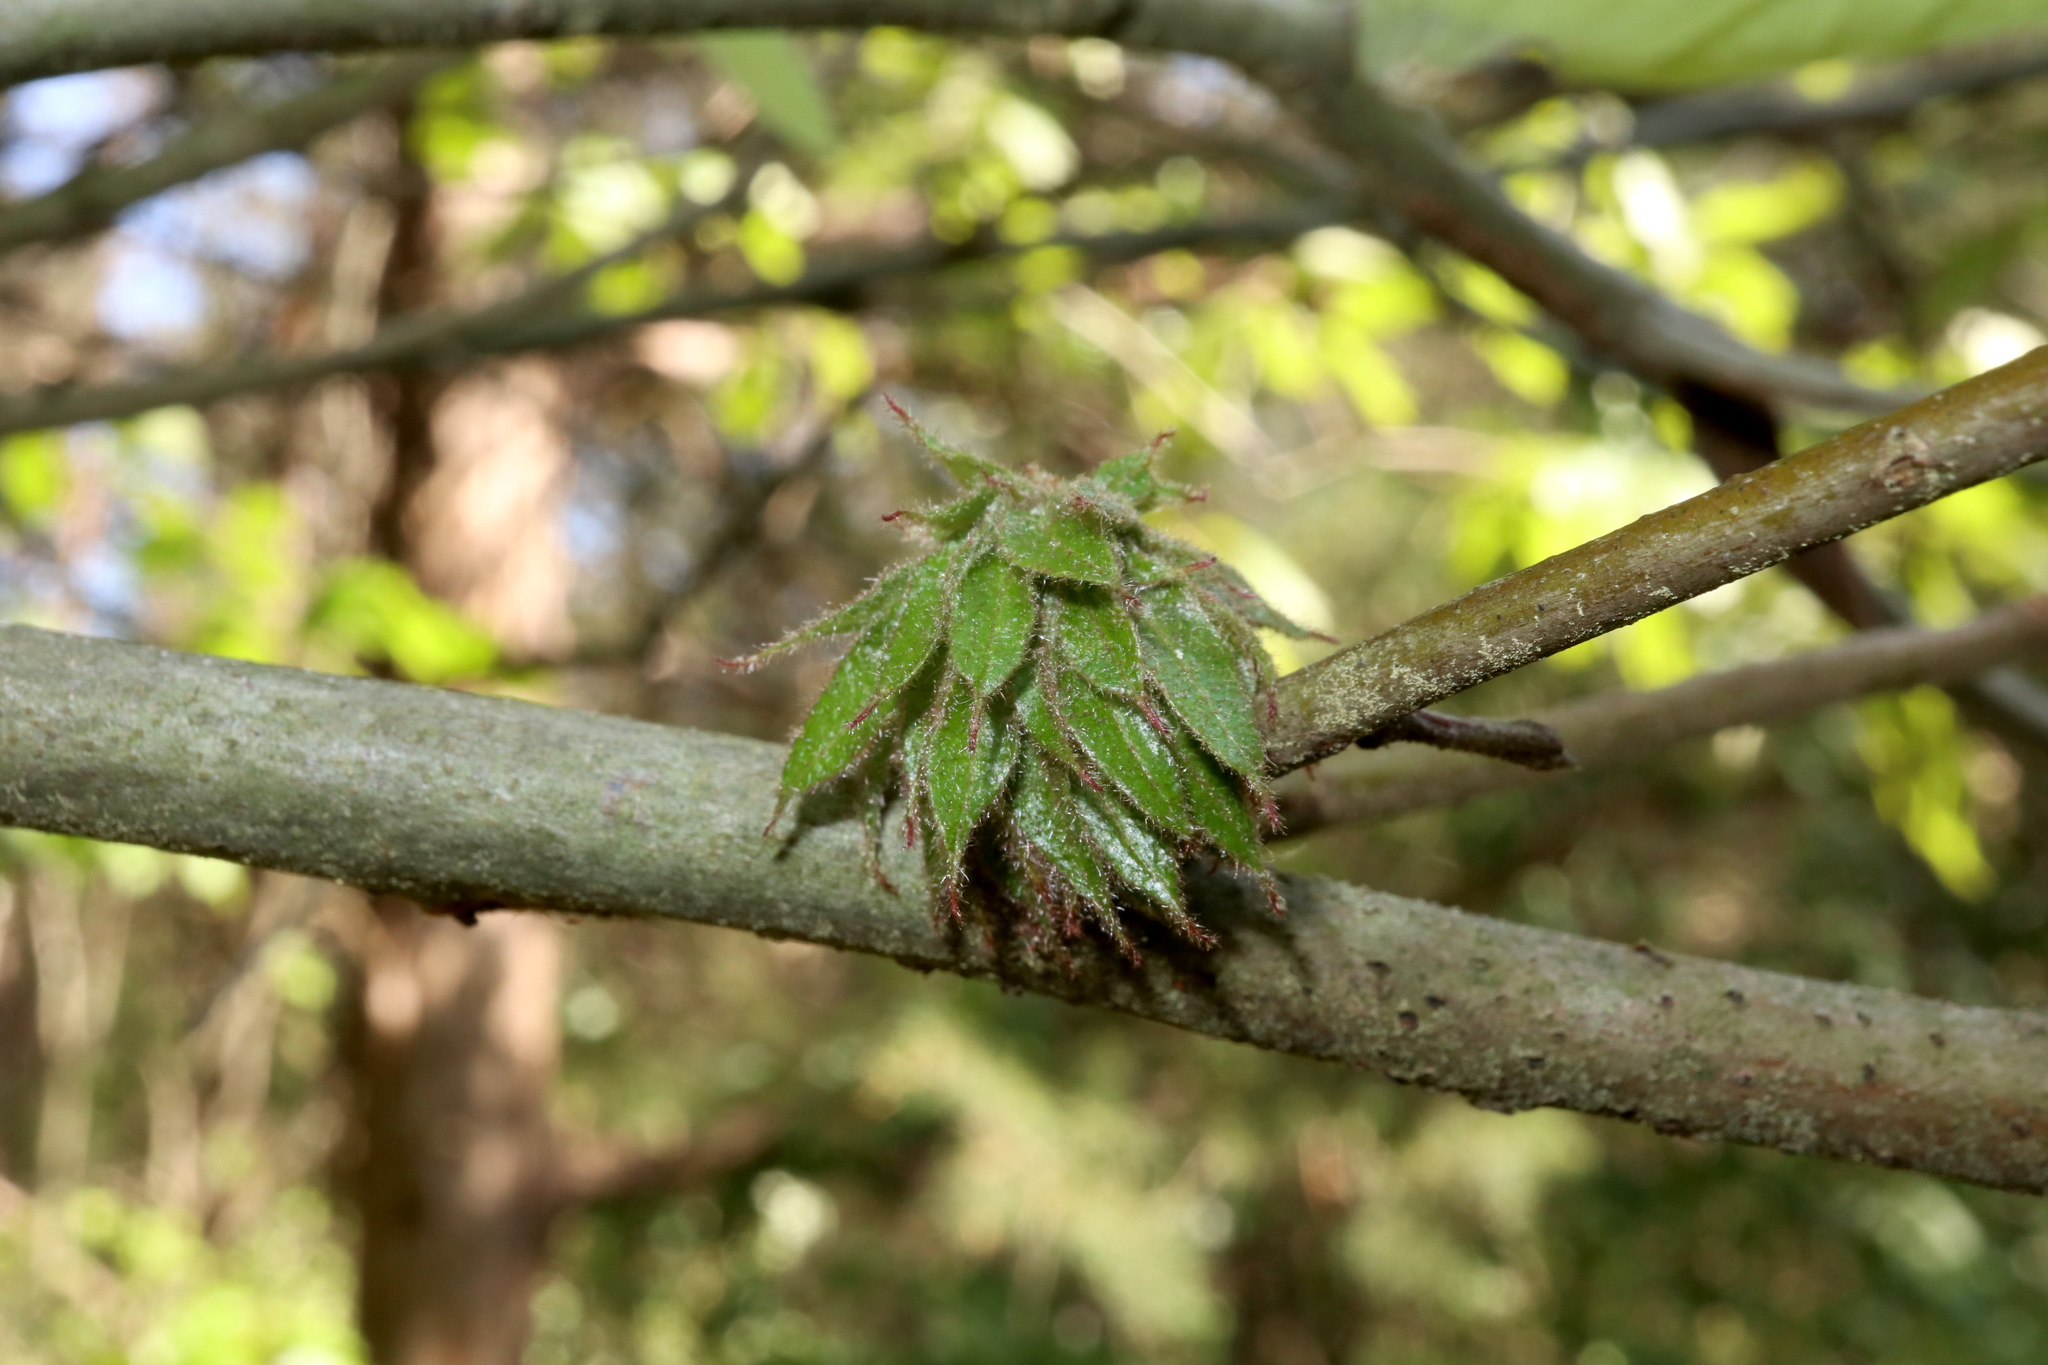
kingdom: Animalia
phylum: Arthropoda
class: Insecta
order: Hymenoptera
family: Cynipidae
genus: Dryocosmus
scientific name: Dryocosmus
